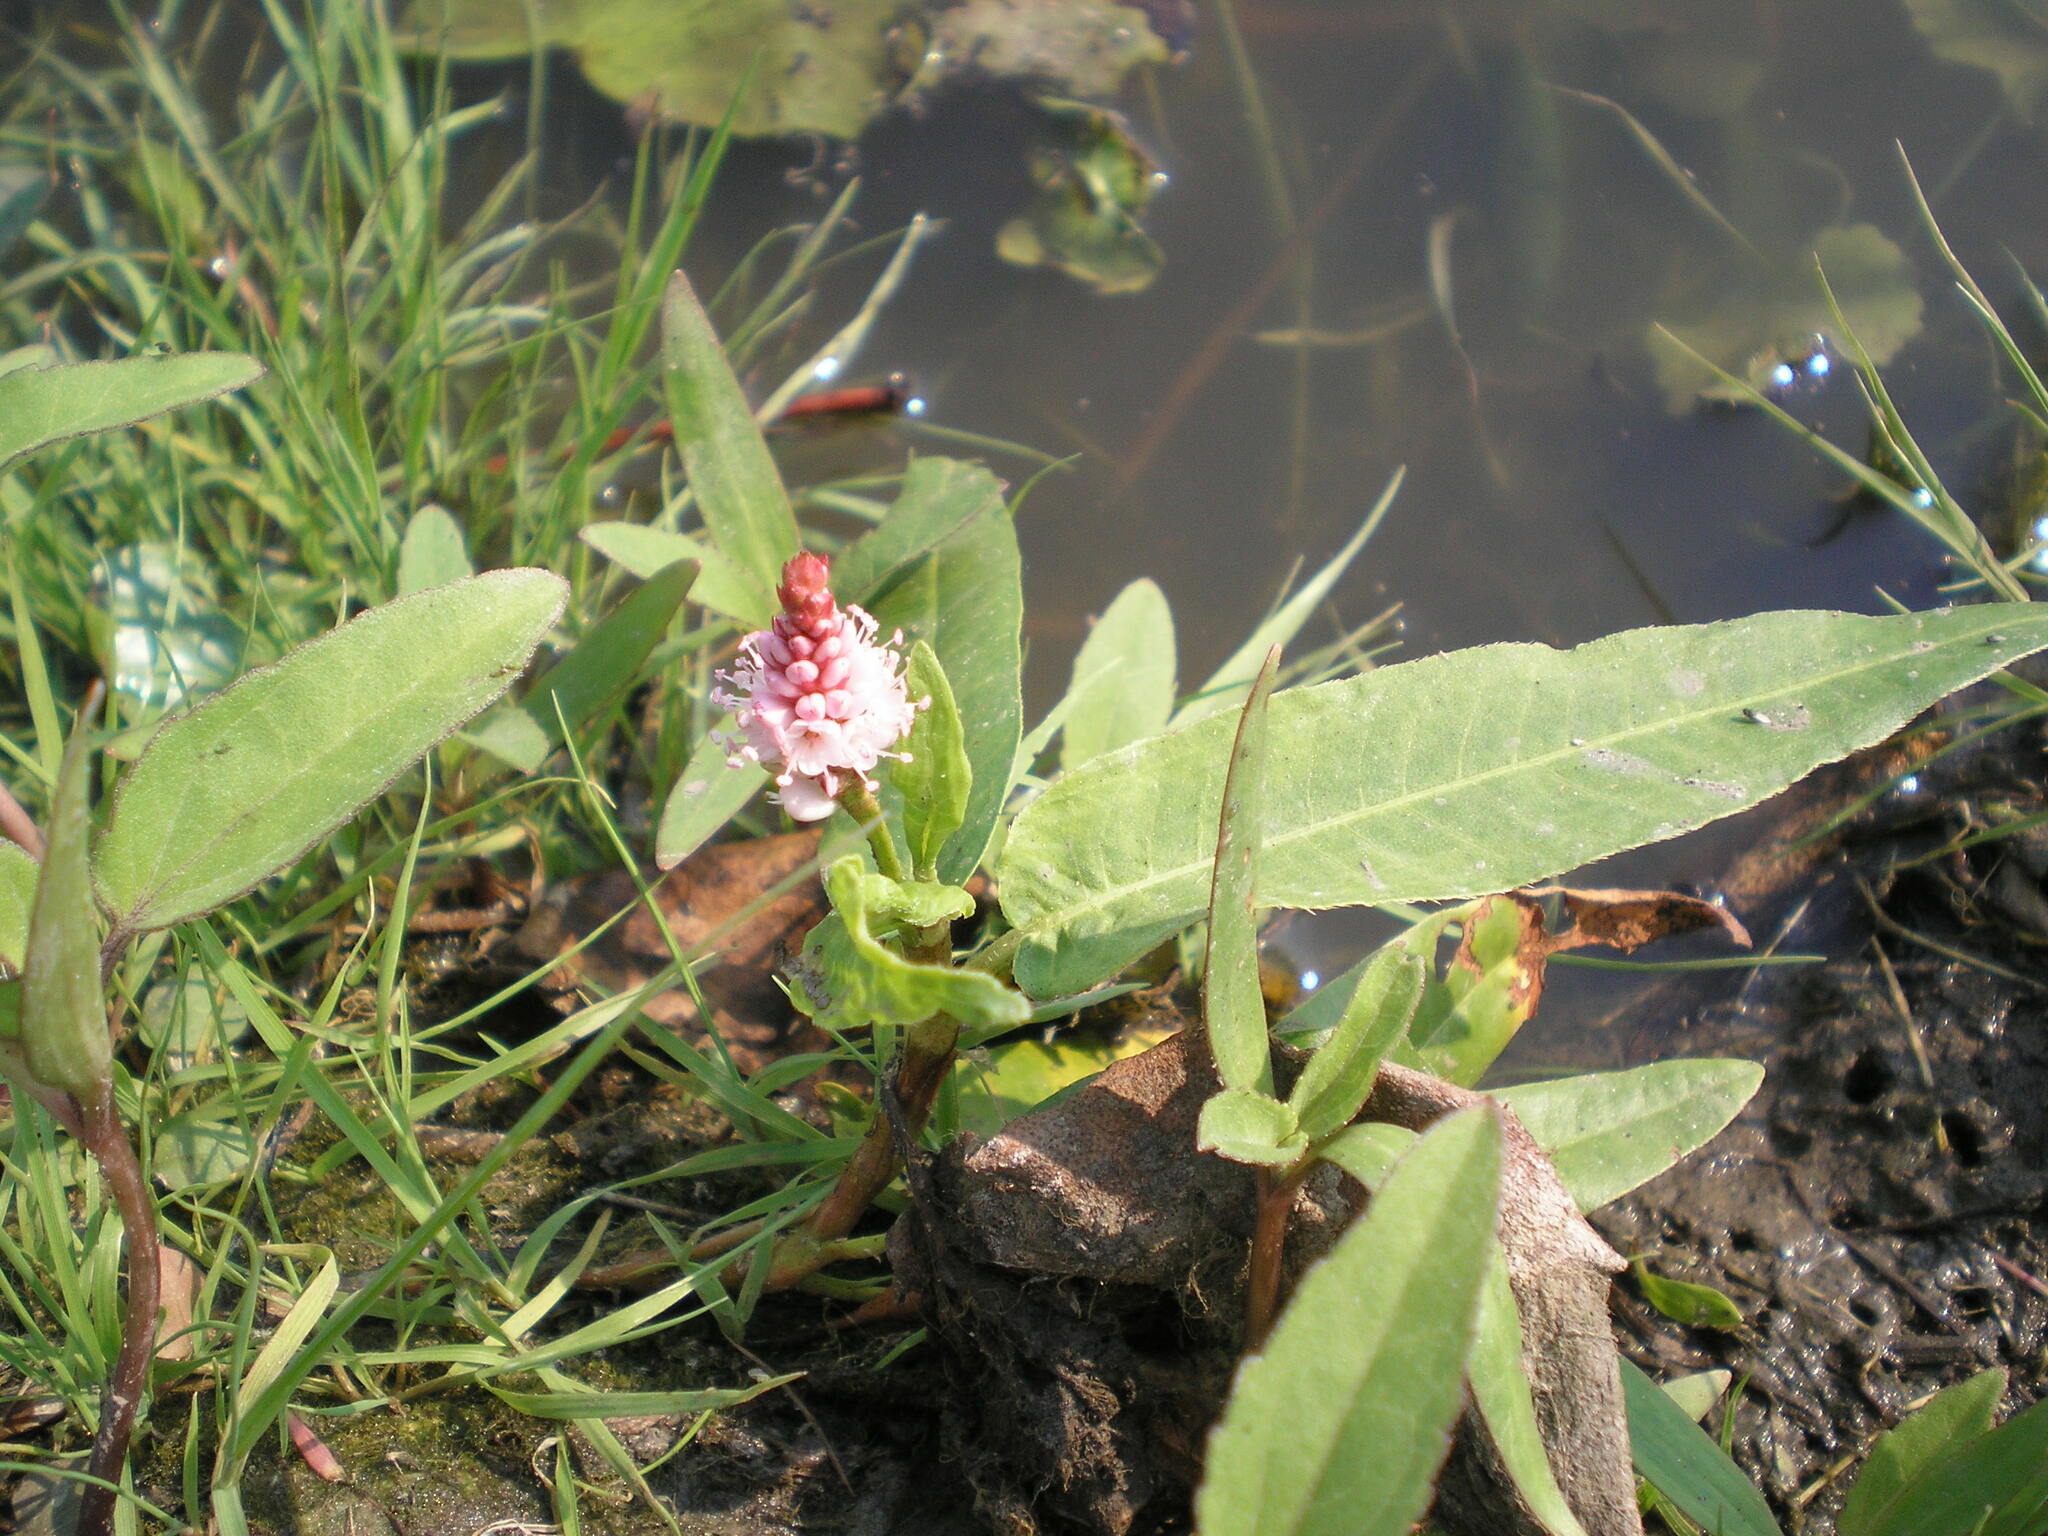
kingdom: Plantae
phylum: Tracheophyta
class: Magnoliopsida
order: Caryophyllales
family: Polygonaceae
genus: Persicaria
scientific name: Persicaria amphibia
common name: Amphibious bistort
